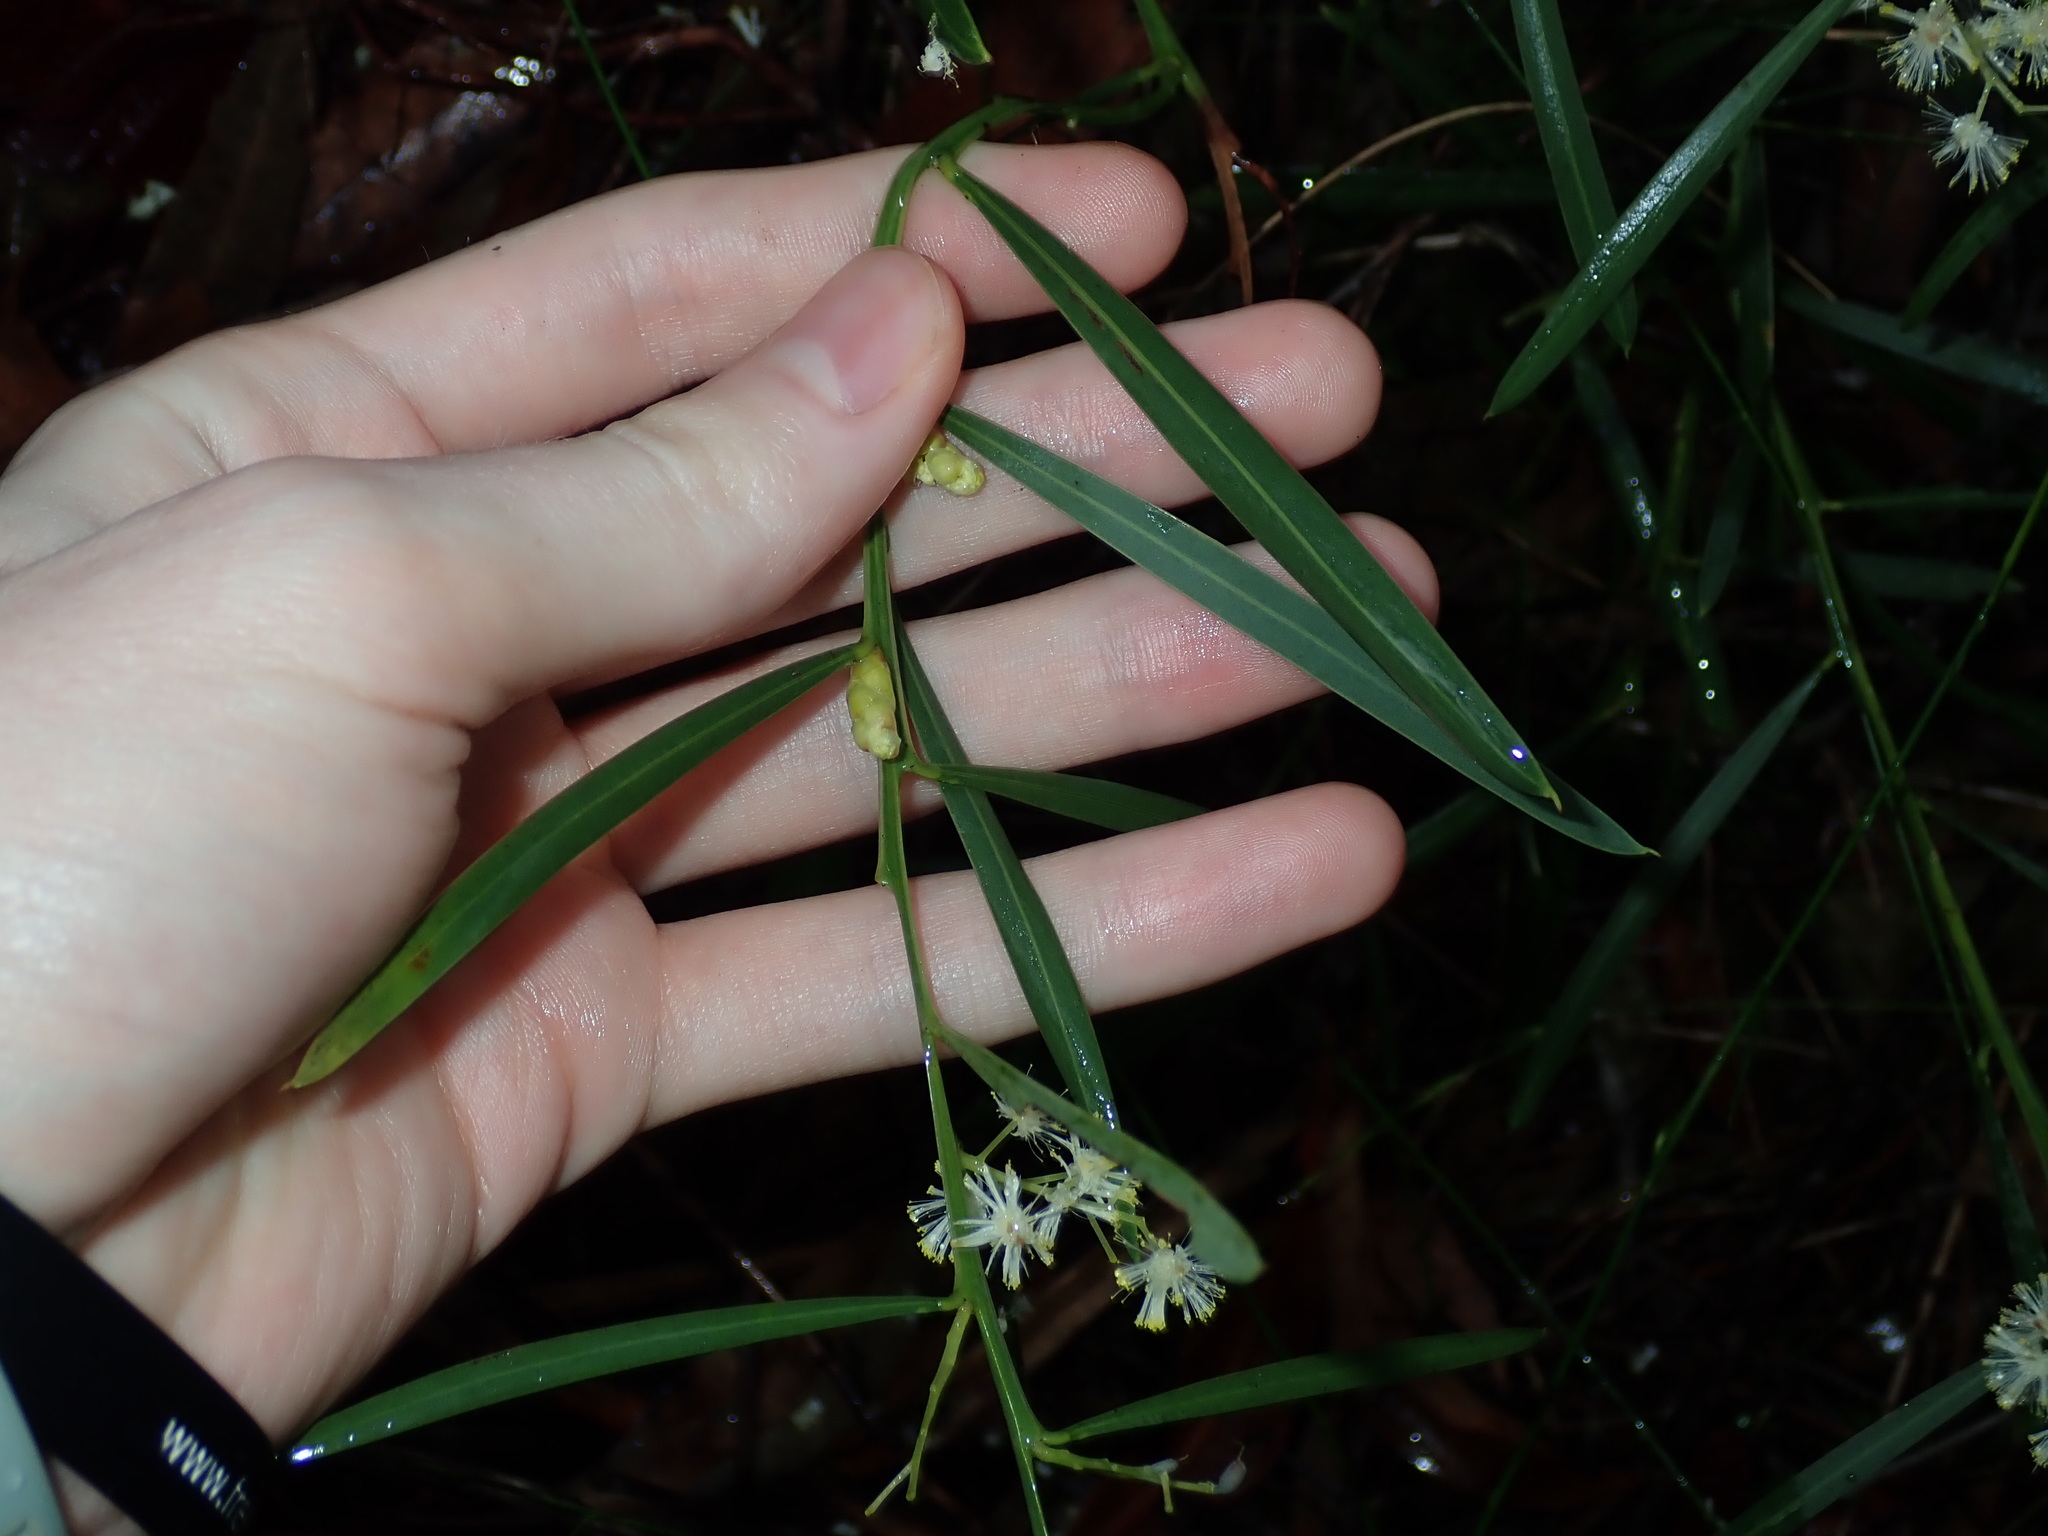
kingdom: Plantae
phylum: Tracheophyta
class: Magnoliopsida
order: Fabales
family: Fabaceae
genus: Acacia
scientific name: Acacia suaveolens
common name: Sweet acacia
